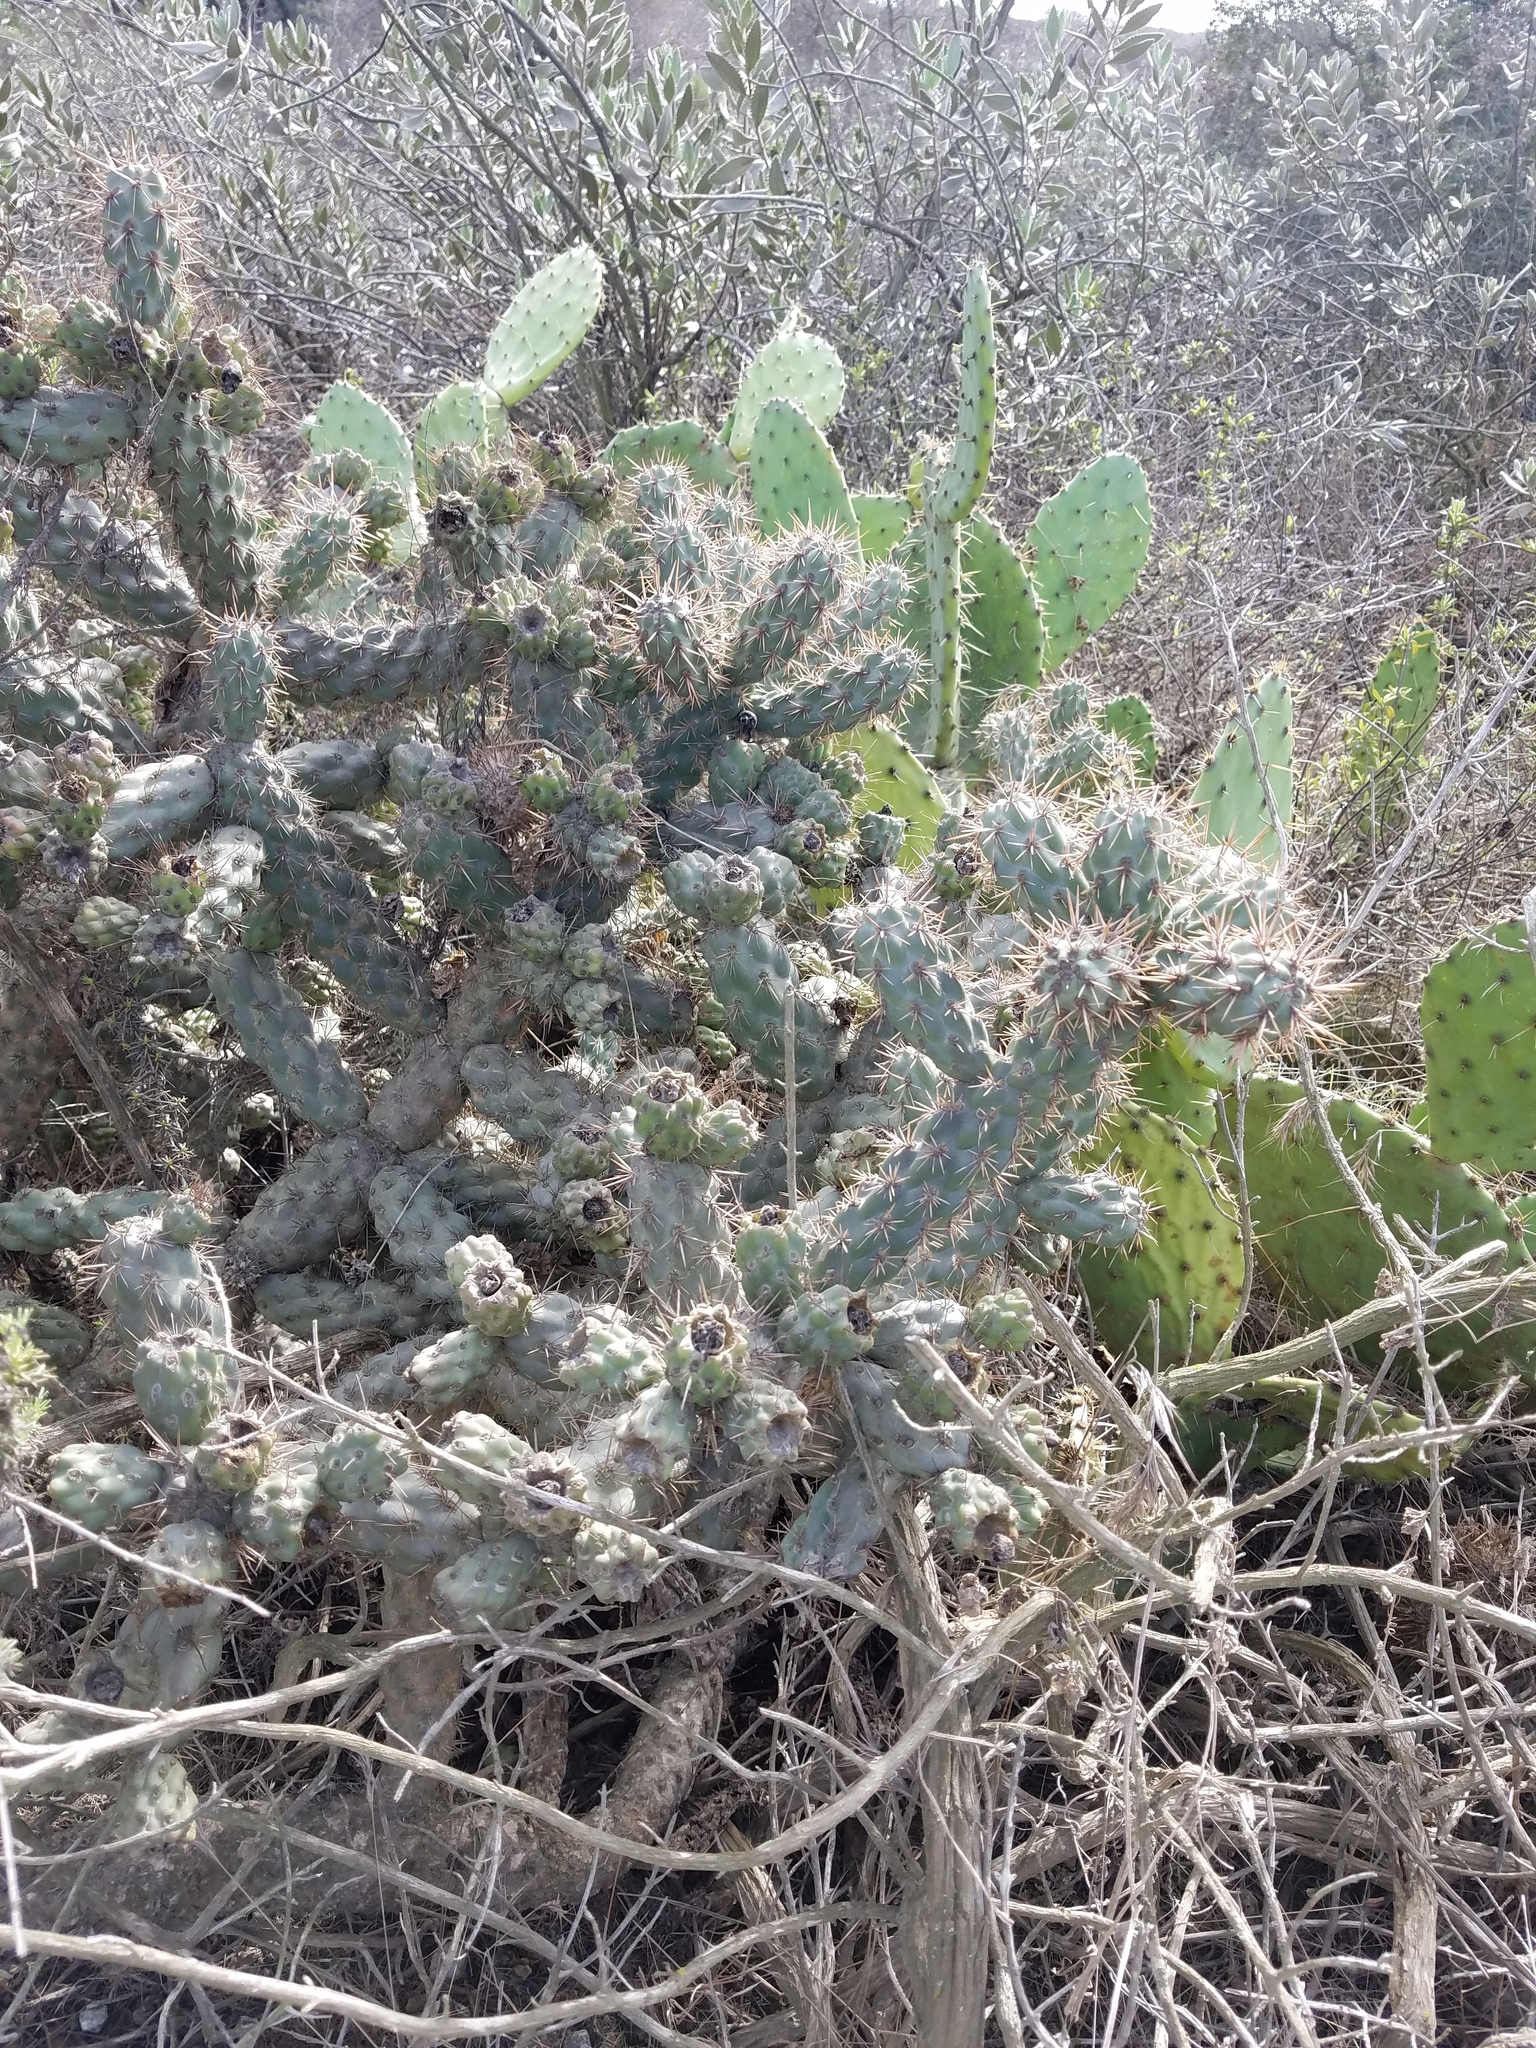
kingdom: Plantae
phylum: Tracheophyta
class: Magnoliopsida
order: Caryophyllales
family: Cactaceae
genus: Cylindropuntia
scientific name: Cylindropuntia prolifera
